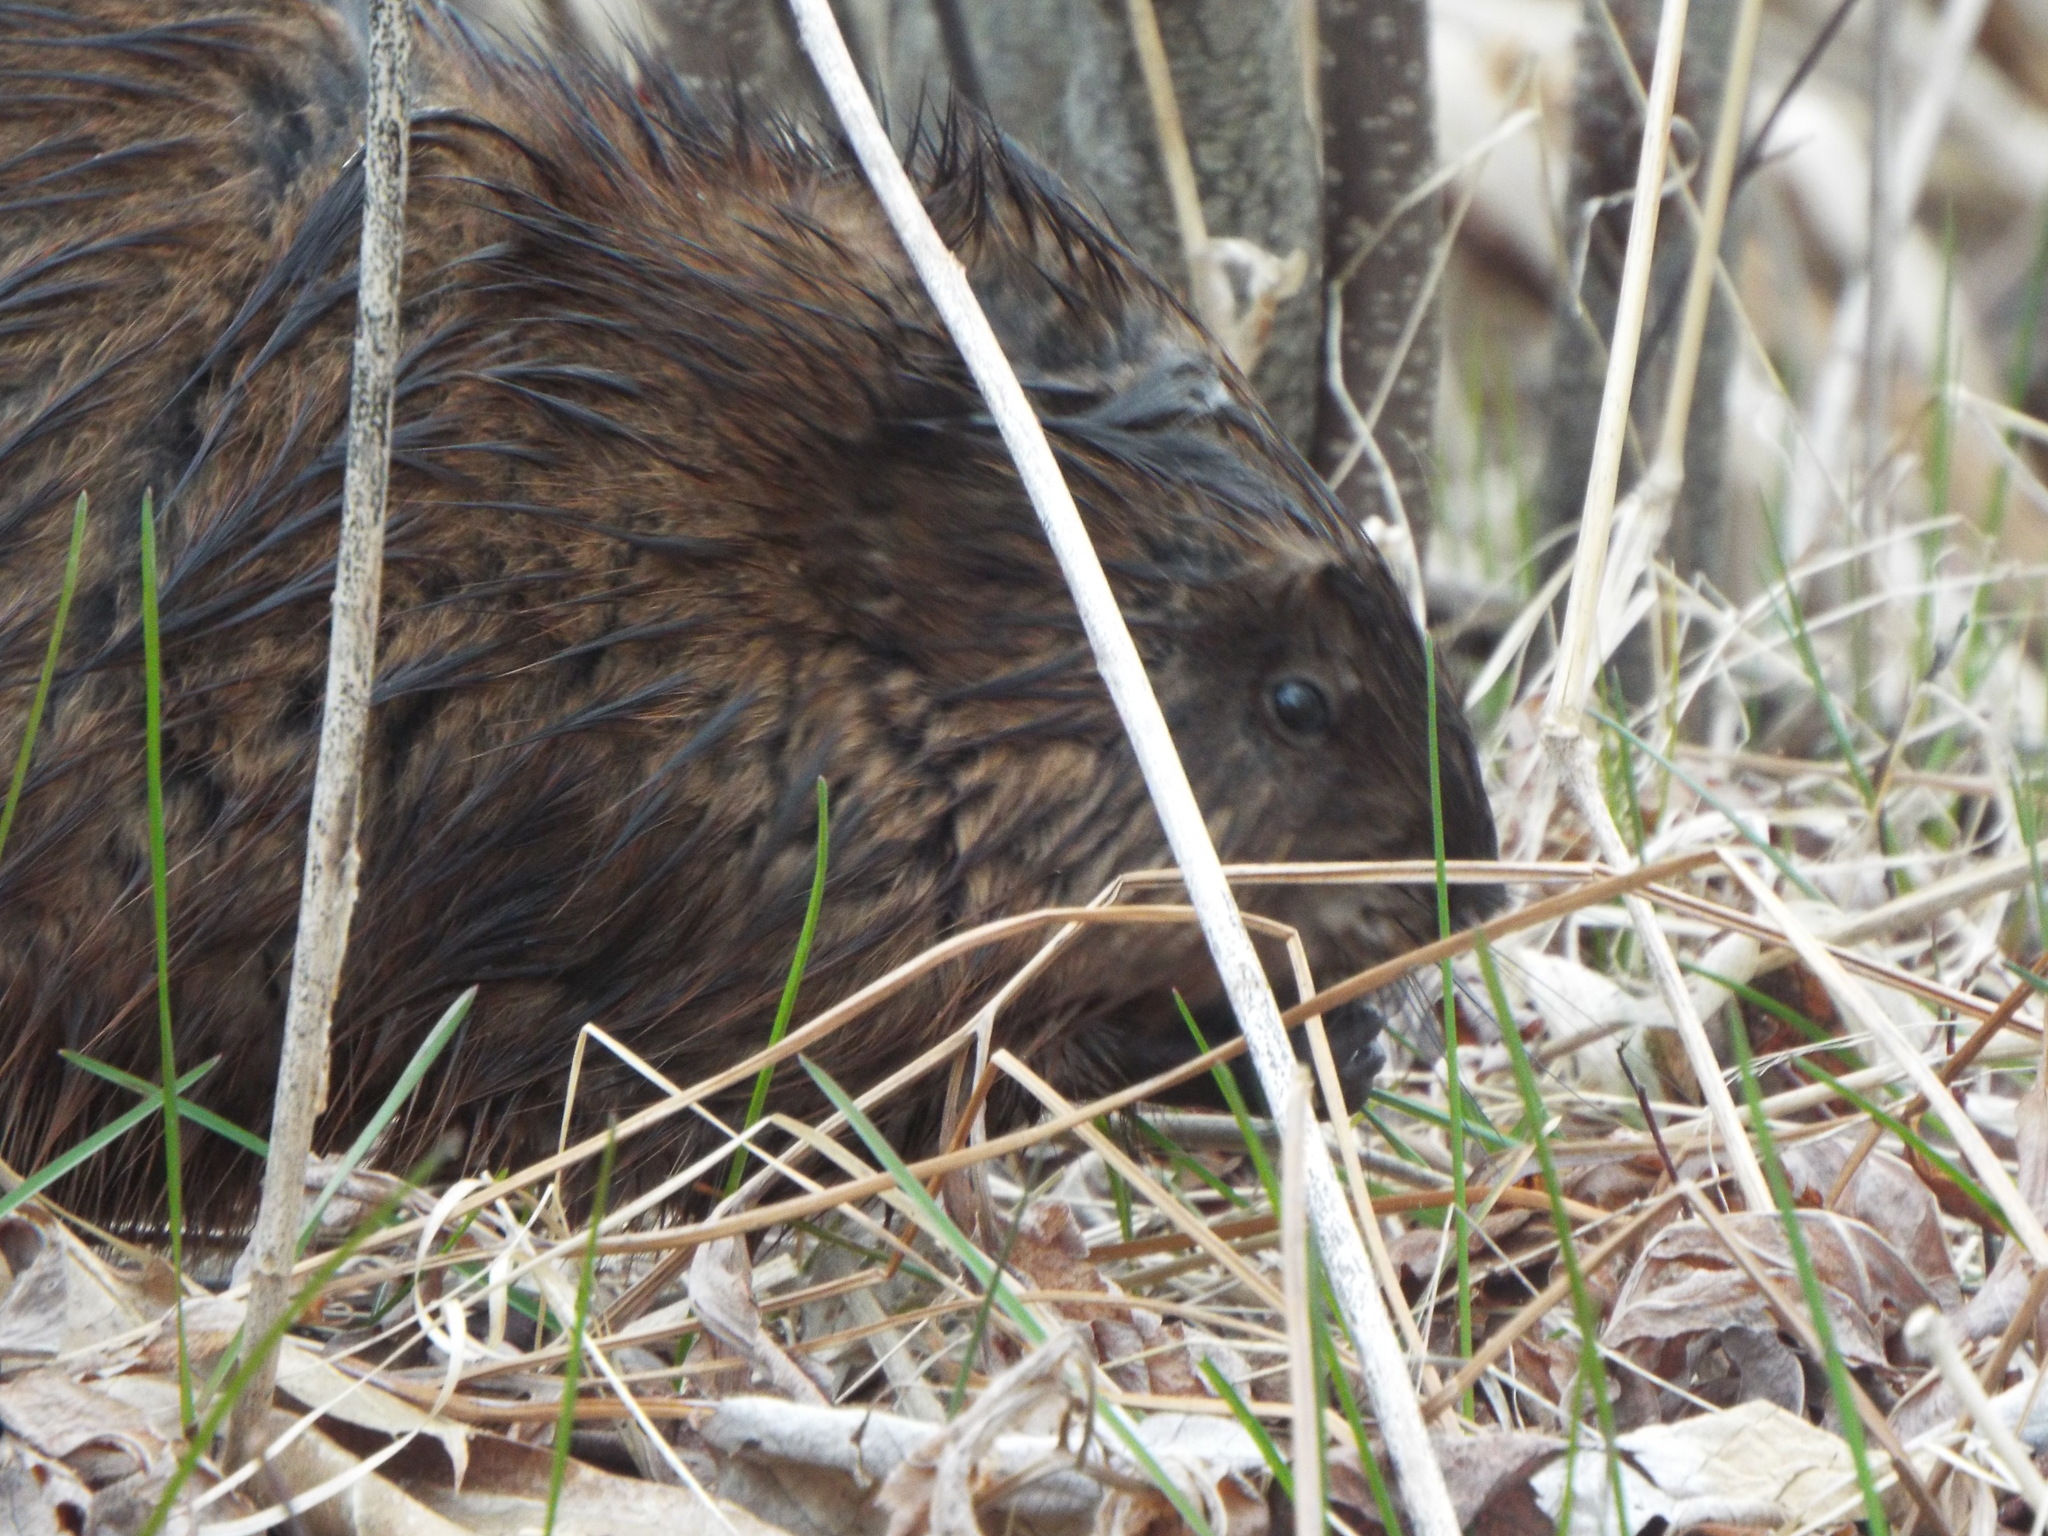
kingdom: Animalia
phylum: Chordata
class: Mammalia
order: Rodentia
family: Cricetidae
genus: Ondatra
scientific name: Ondatra zibethicus
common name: Muskrat
